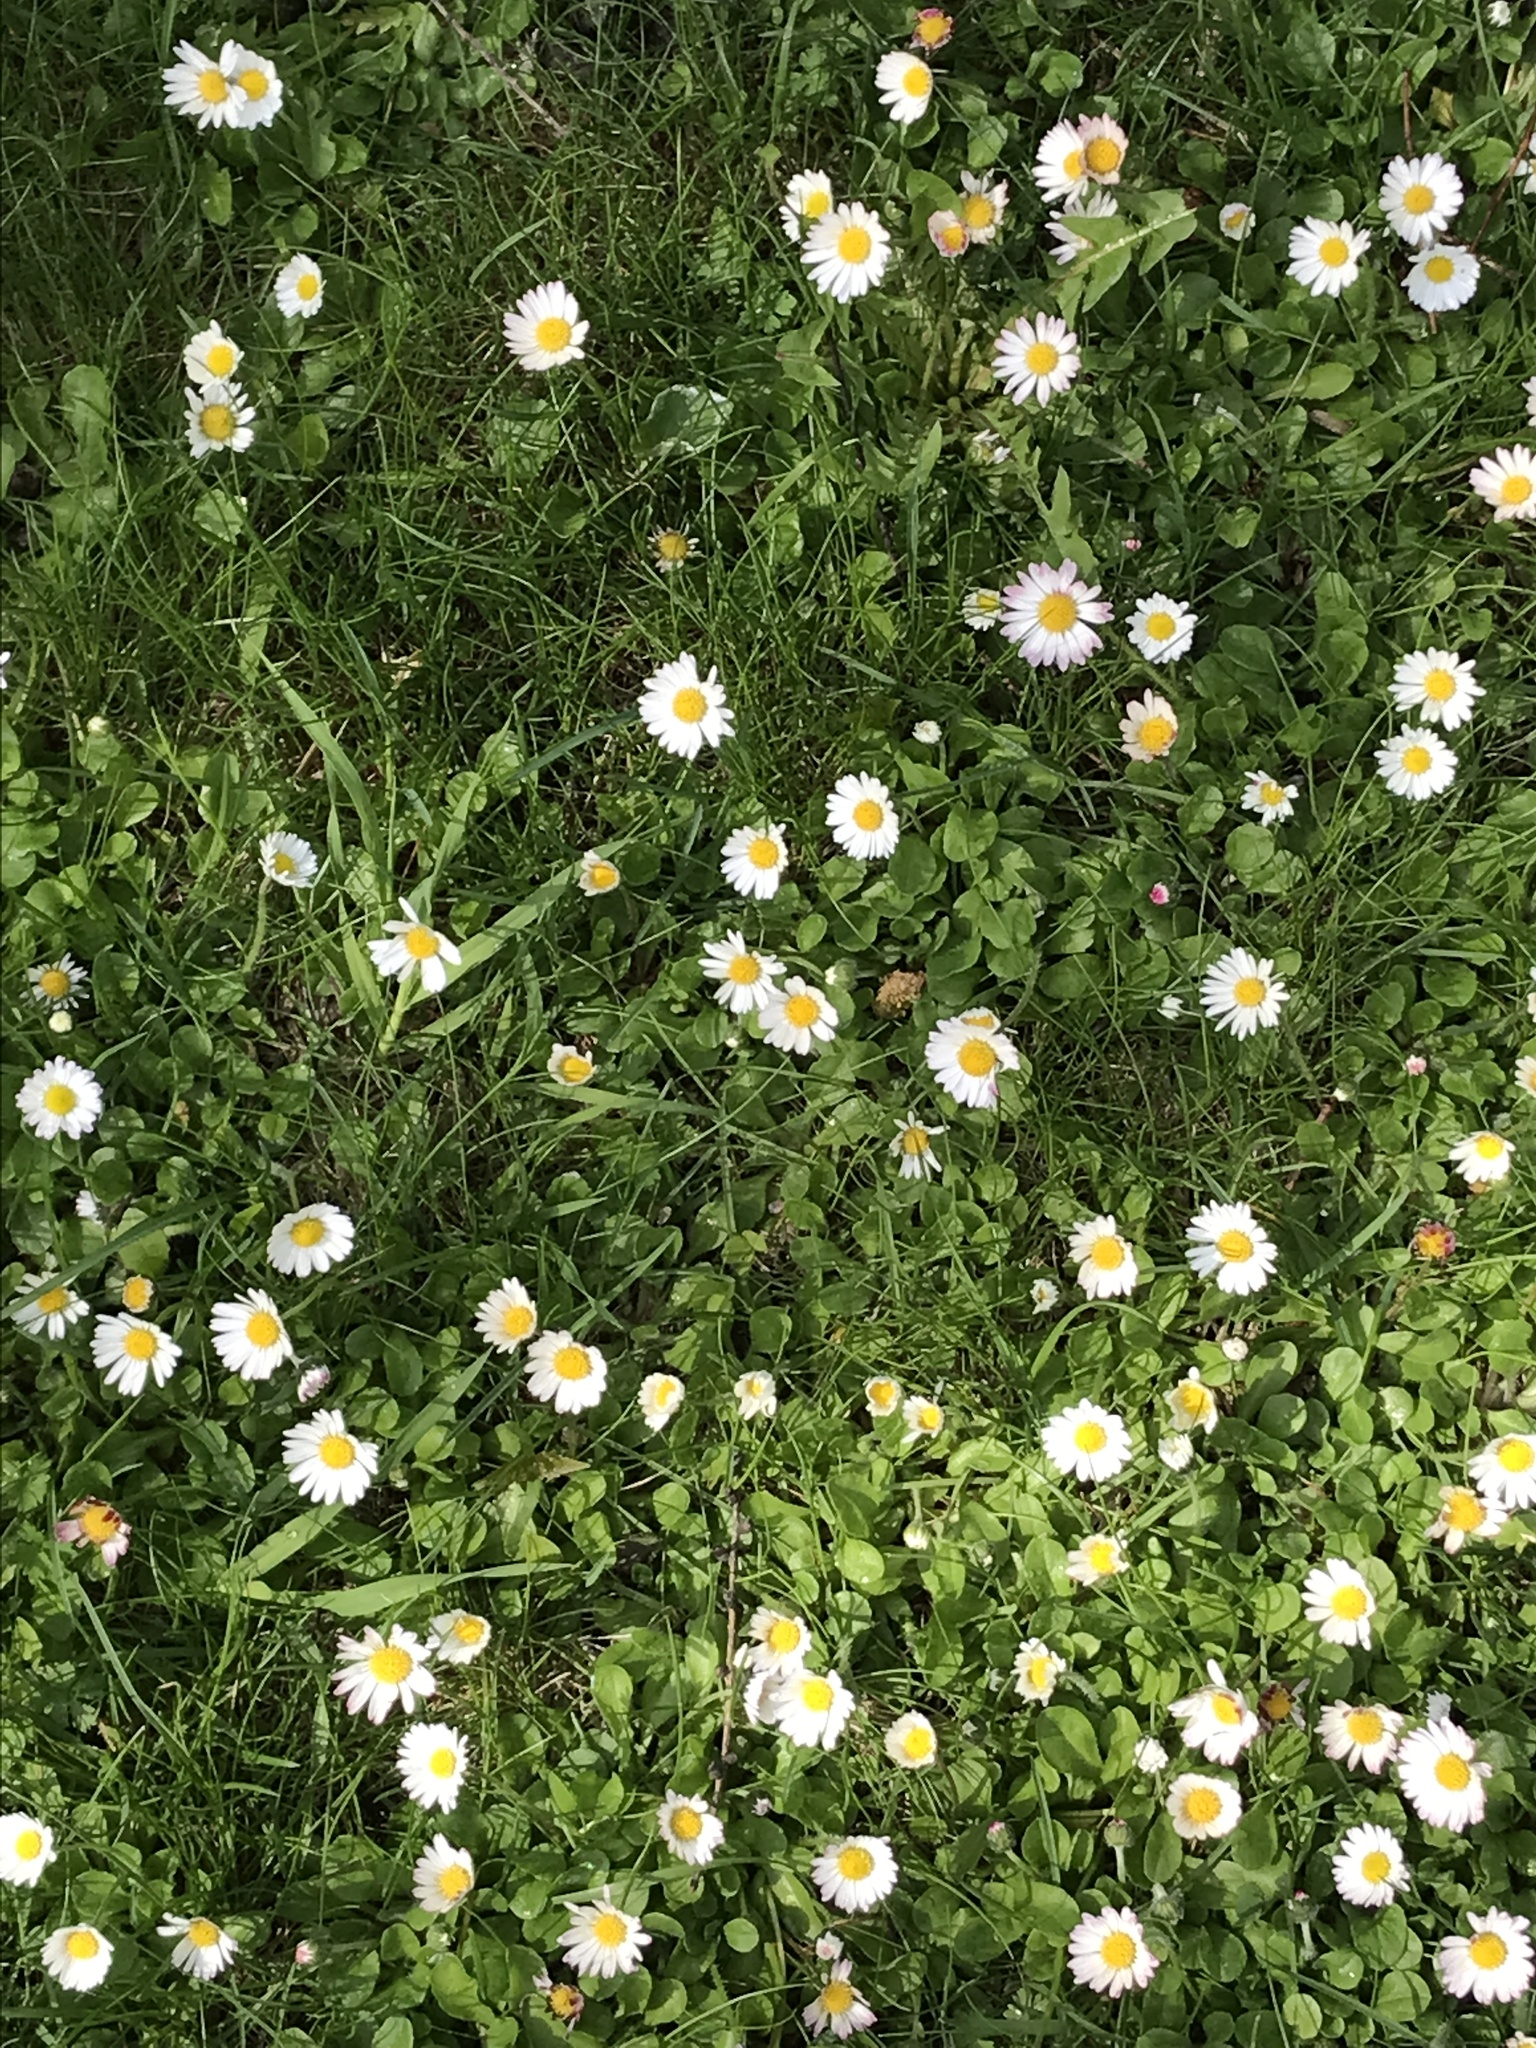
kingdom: Plantae
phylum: Tracheophyta
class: Magnoliopsida
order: Asterales
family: Asteraceae
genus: Bellis
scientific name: Bellis perennis
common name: Lawndaisy
